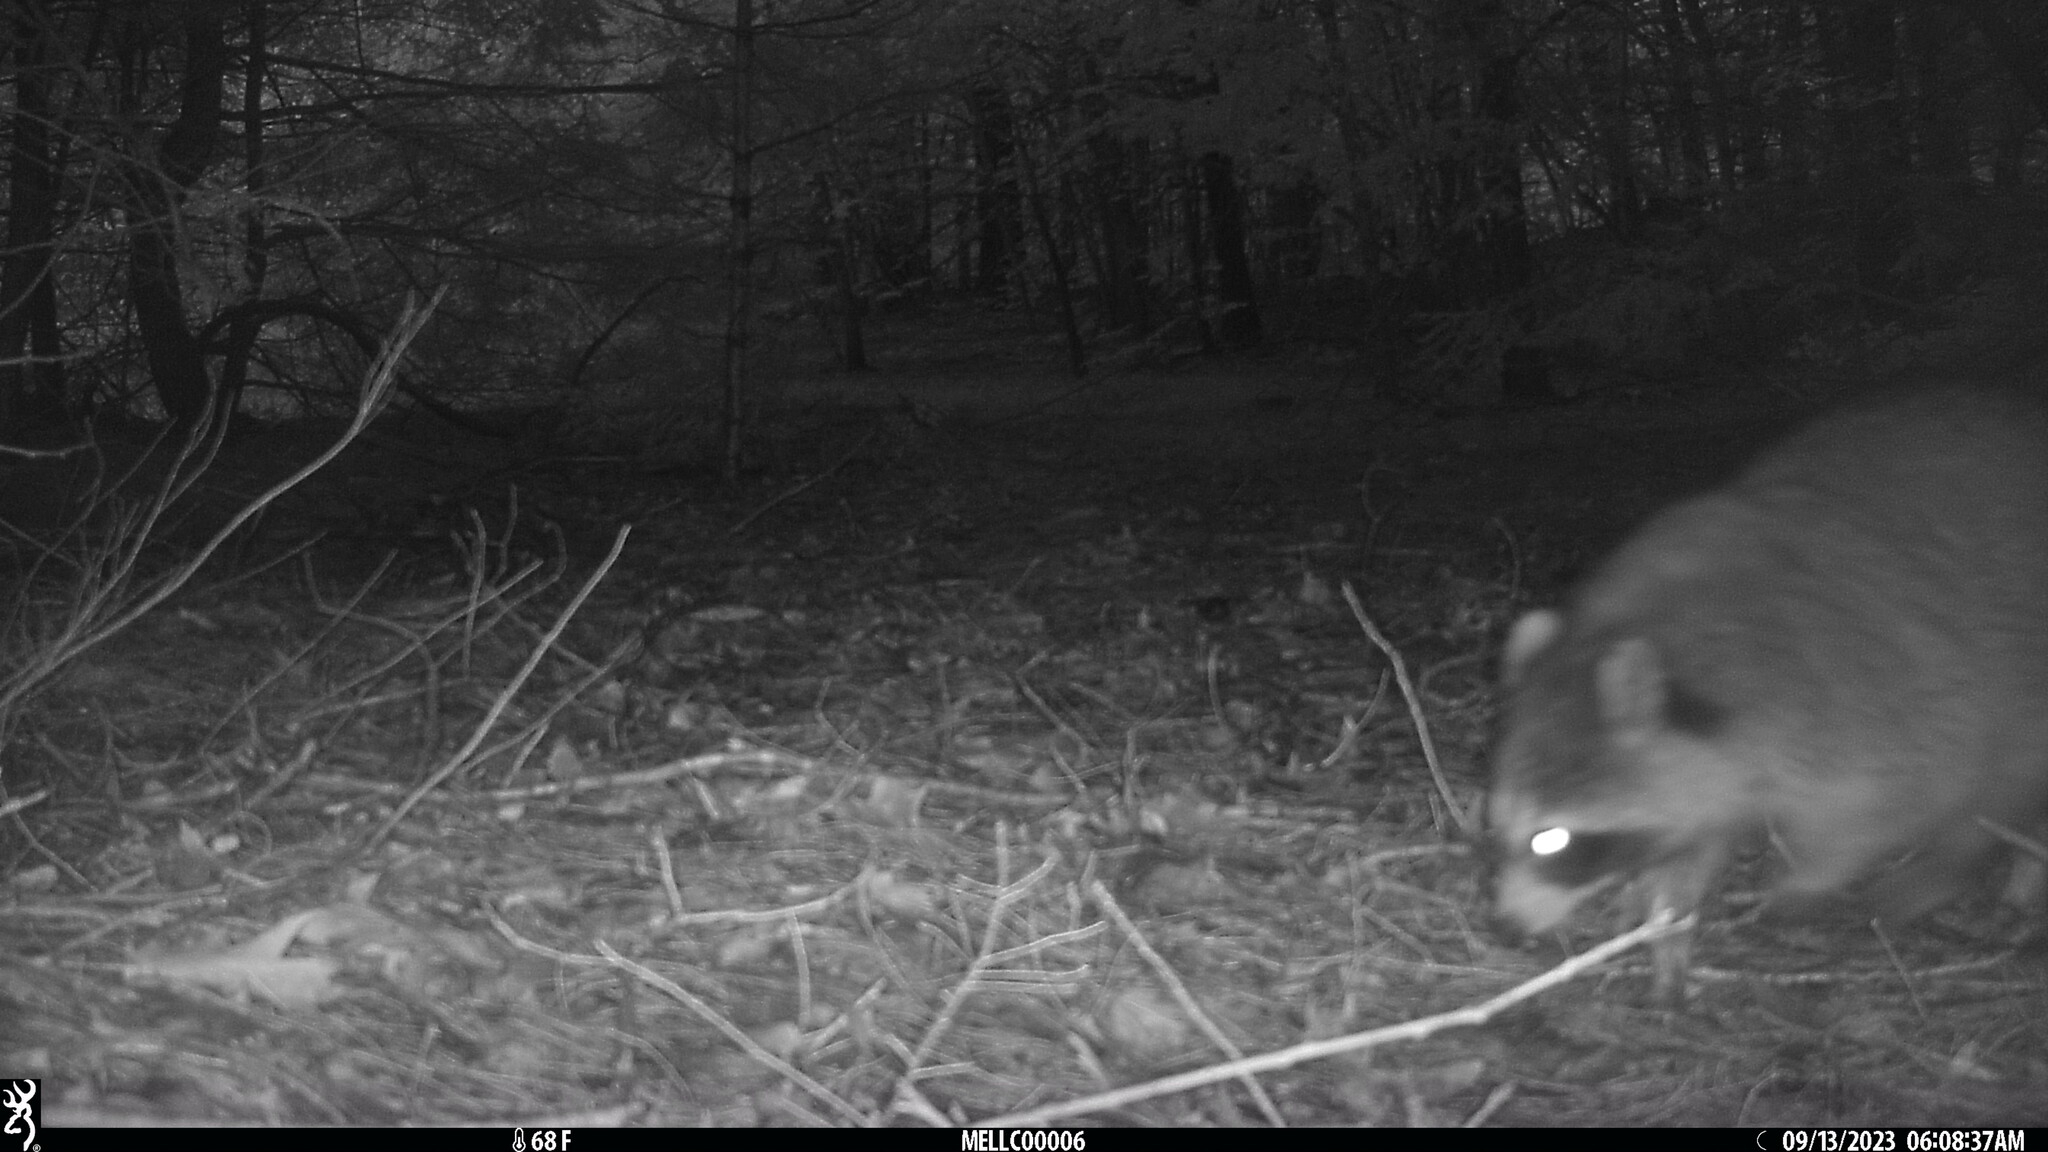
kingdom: Animalia
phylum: Chordata
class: Mammalia
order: Carnivora
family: Procyonidae
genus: Procyon
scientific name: Procyon lotor
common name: Raccoon
